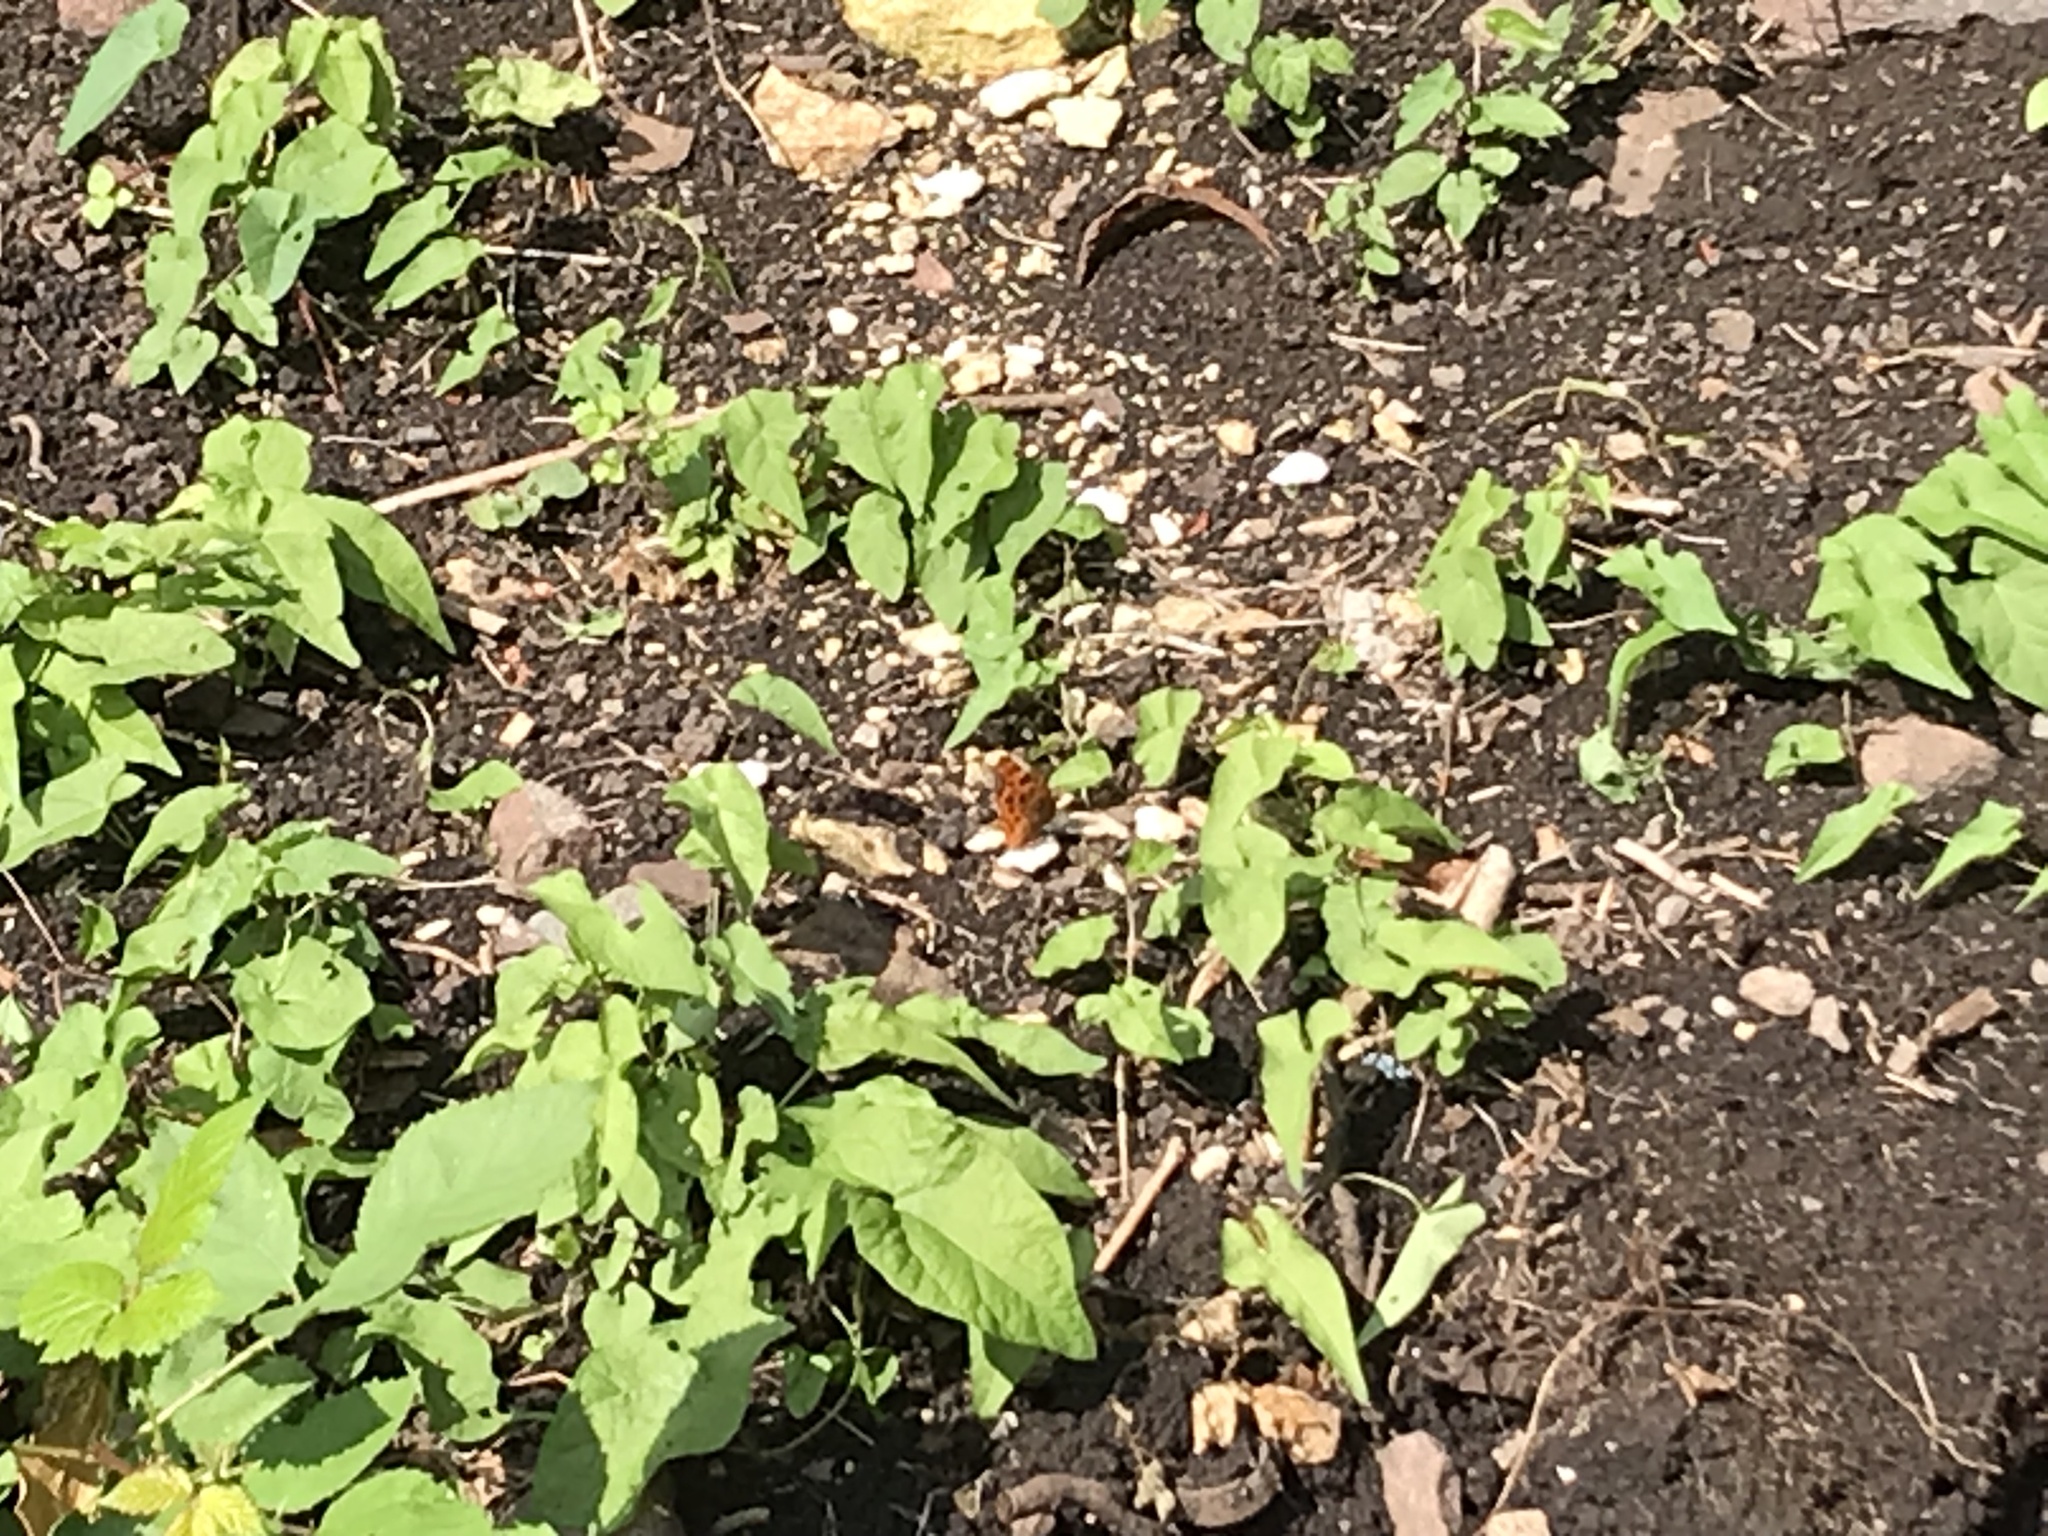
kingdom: Animalia
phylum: Arthropoda
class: Insecta
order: Lepidoptera
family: Nymphalidae
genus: Polygonia
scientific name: Polygonia c-album
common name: Comma
